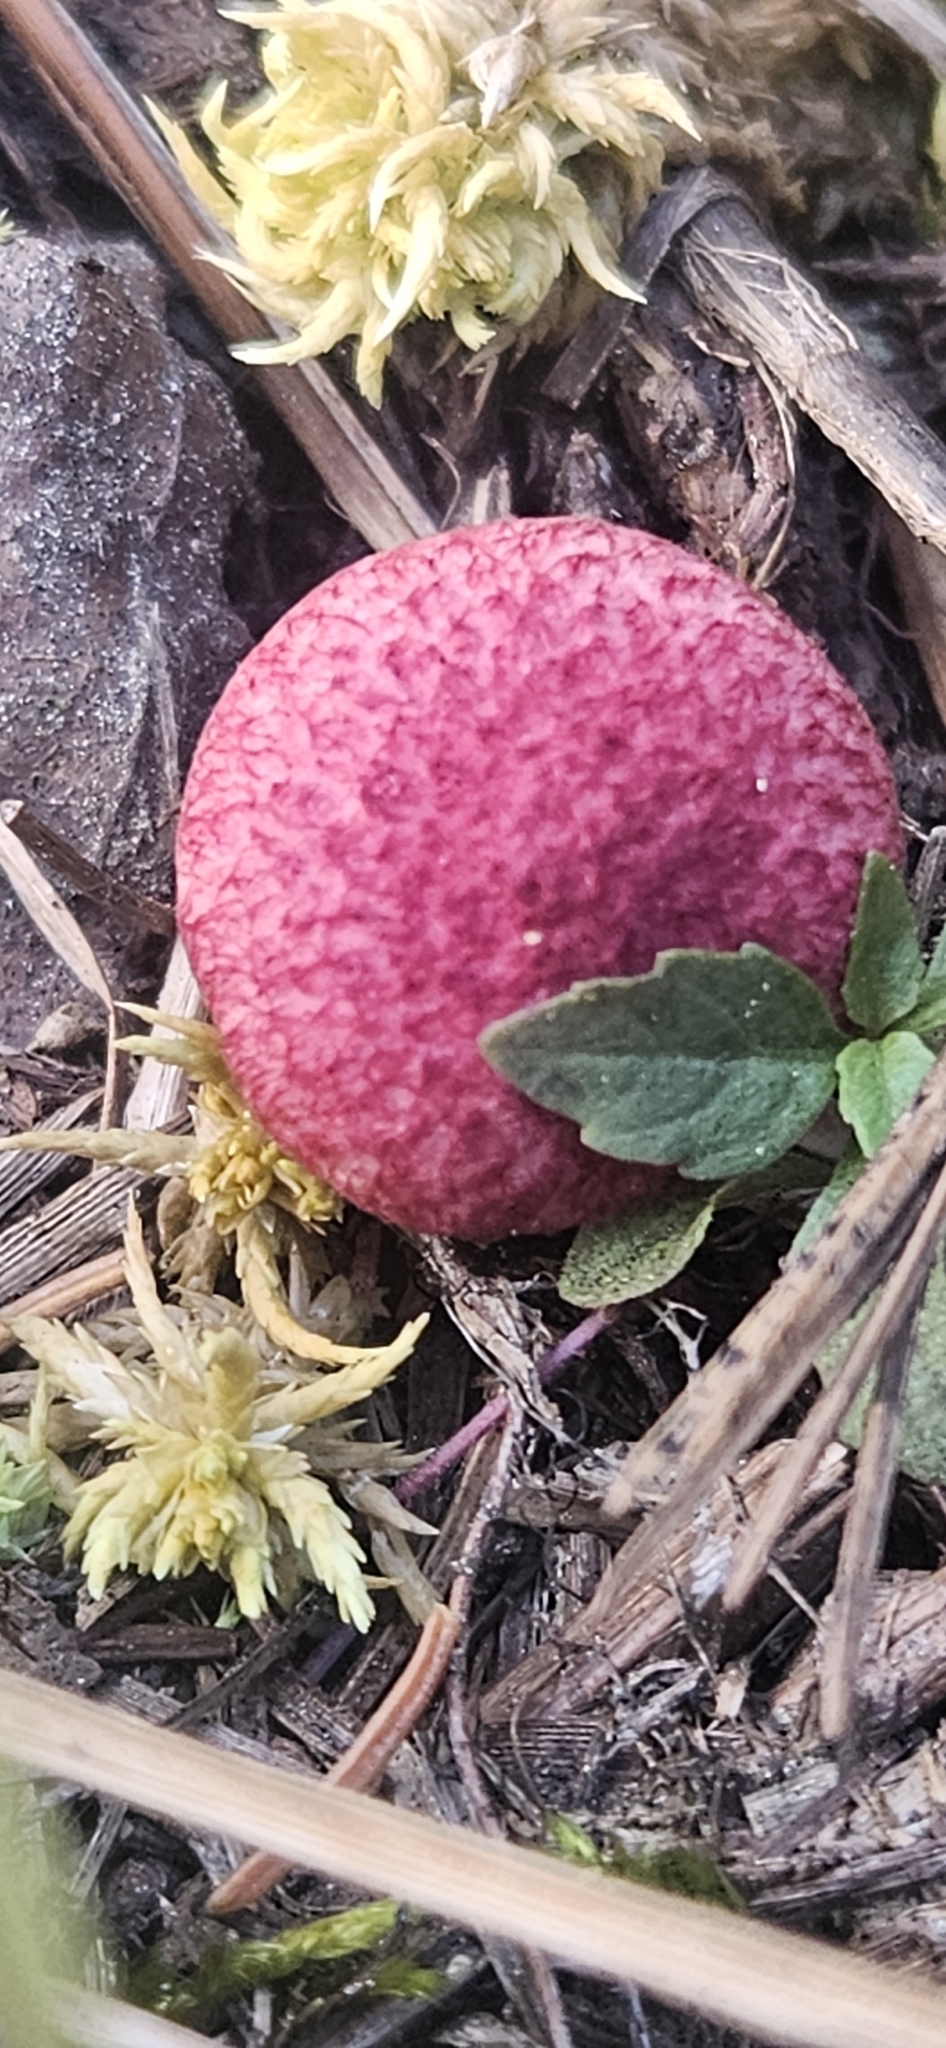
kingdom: Fungi
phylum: Basidiomycota
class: Agaricomycetes
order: Boletales
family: Boletaceae
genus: Boletus
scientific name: Boletus paluster
